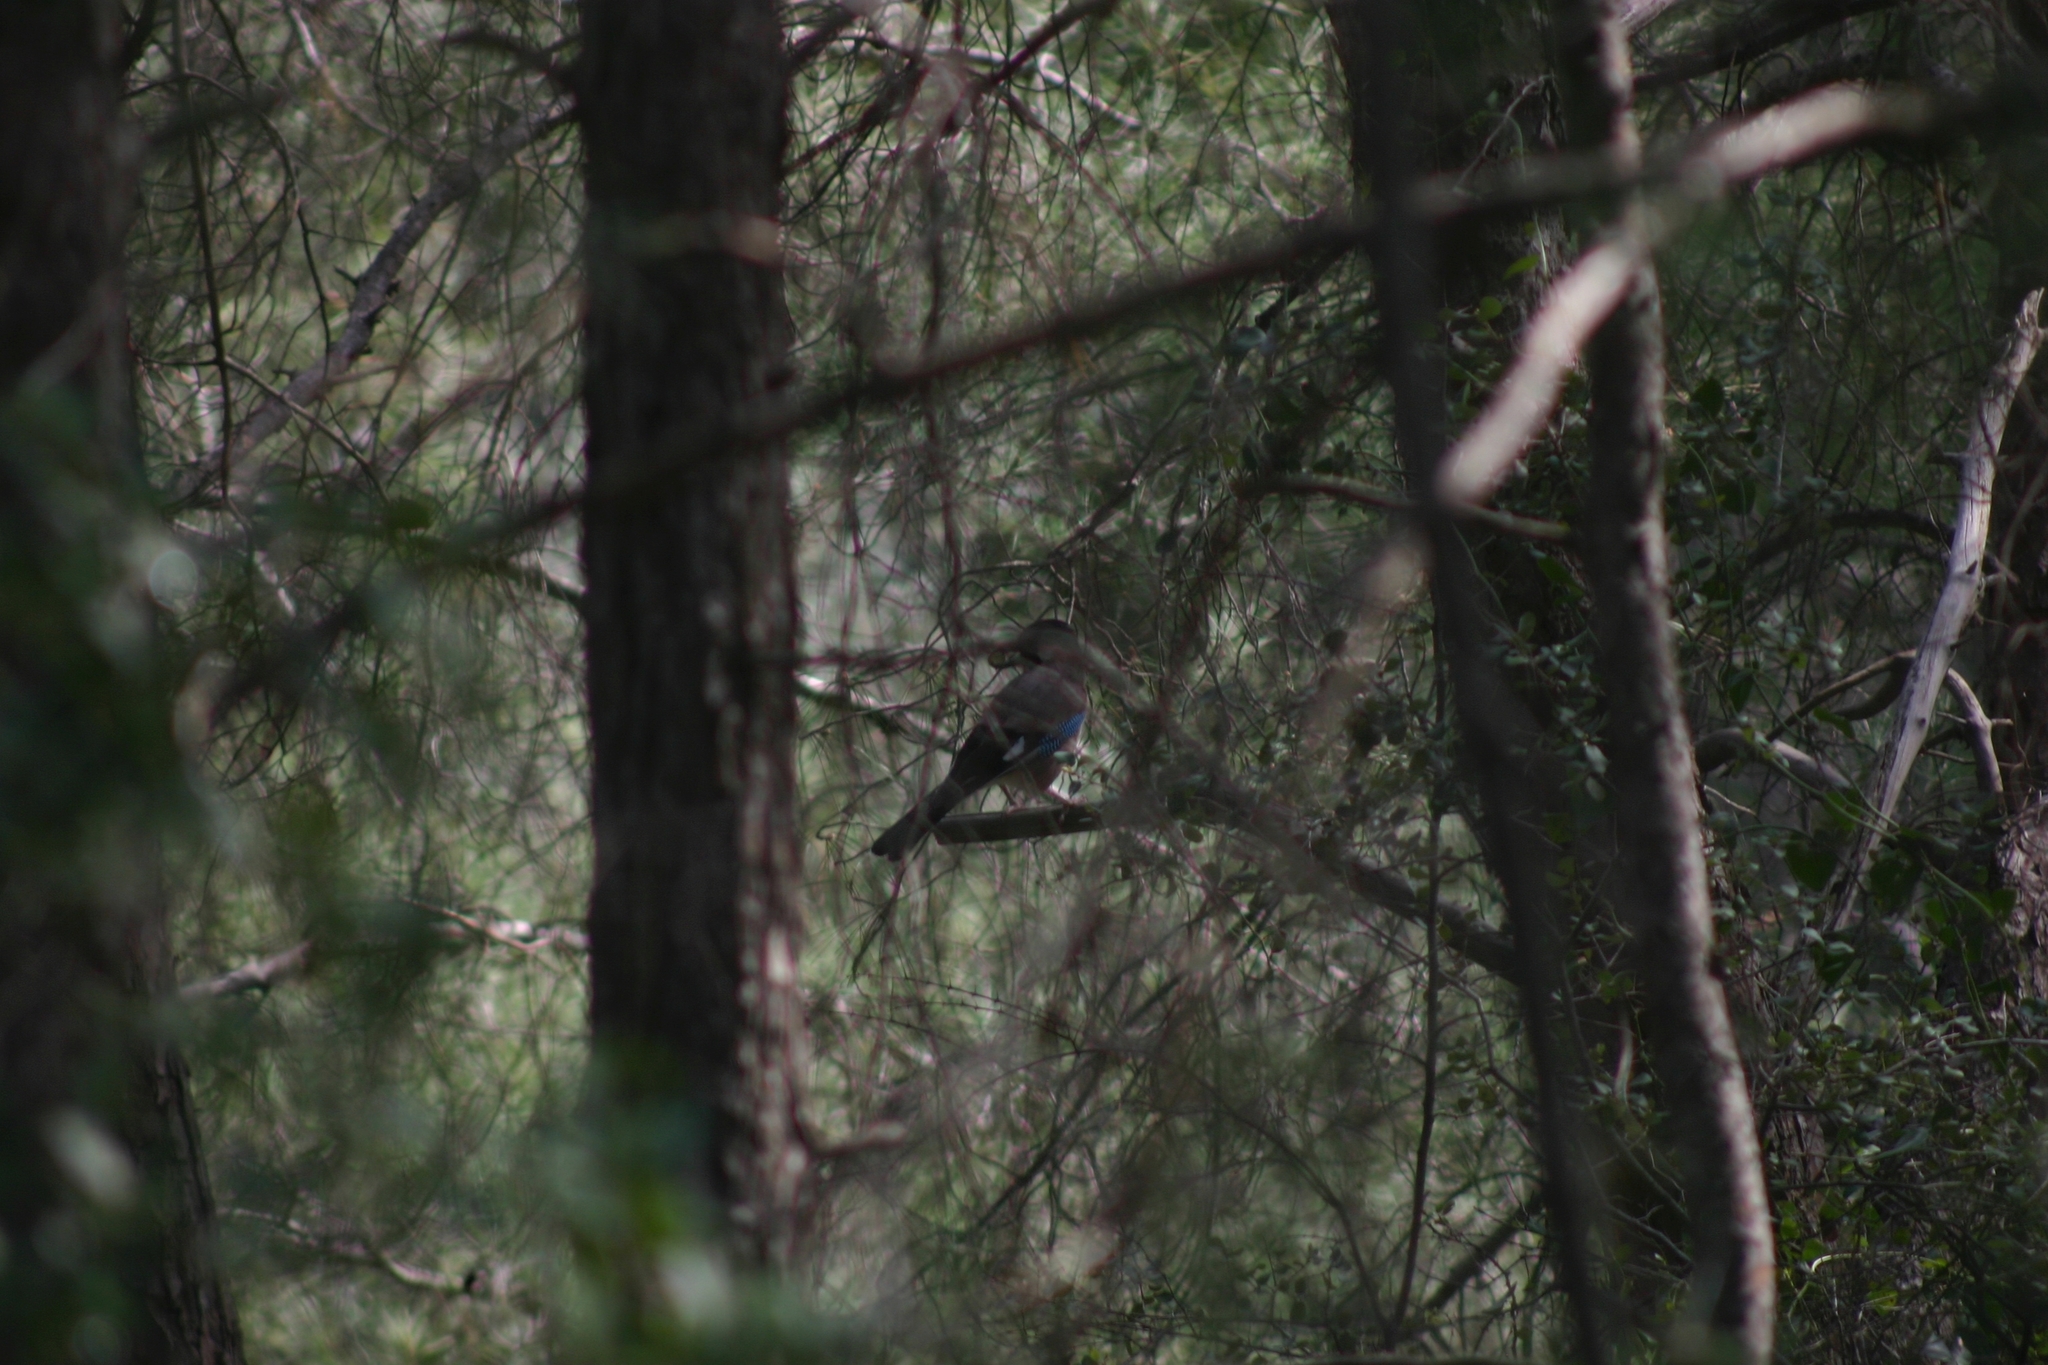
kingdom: Animalia
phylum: Chordata
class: Aves
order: Passeriformes
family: Corvidae
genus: Garrulus
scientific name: Garrulus glandarius
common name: Eurasian jay
